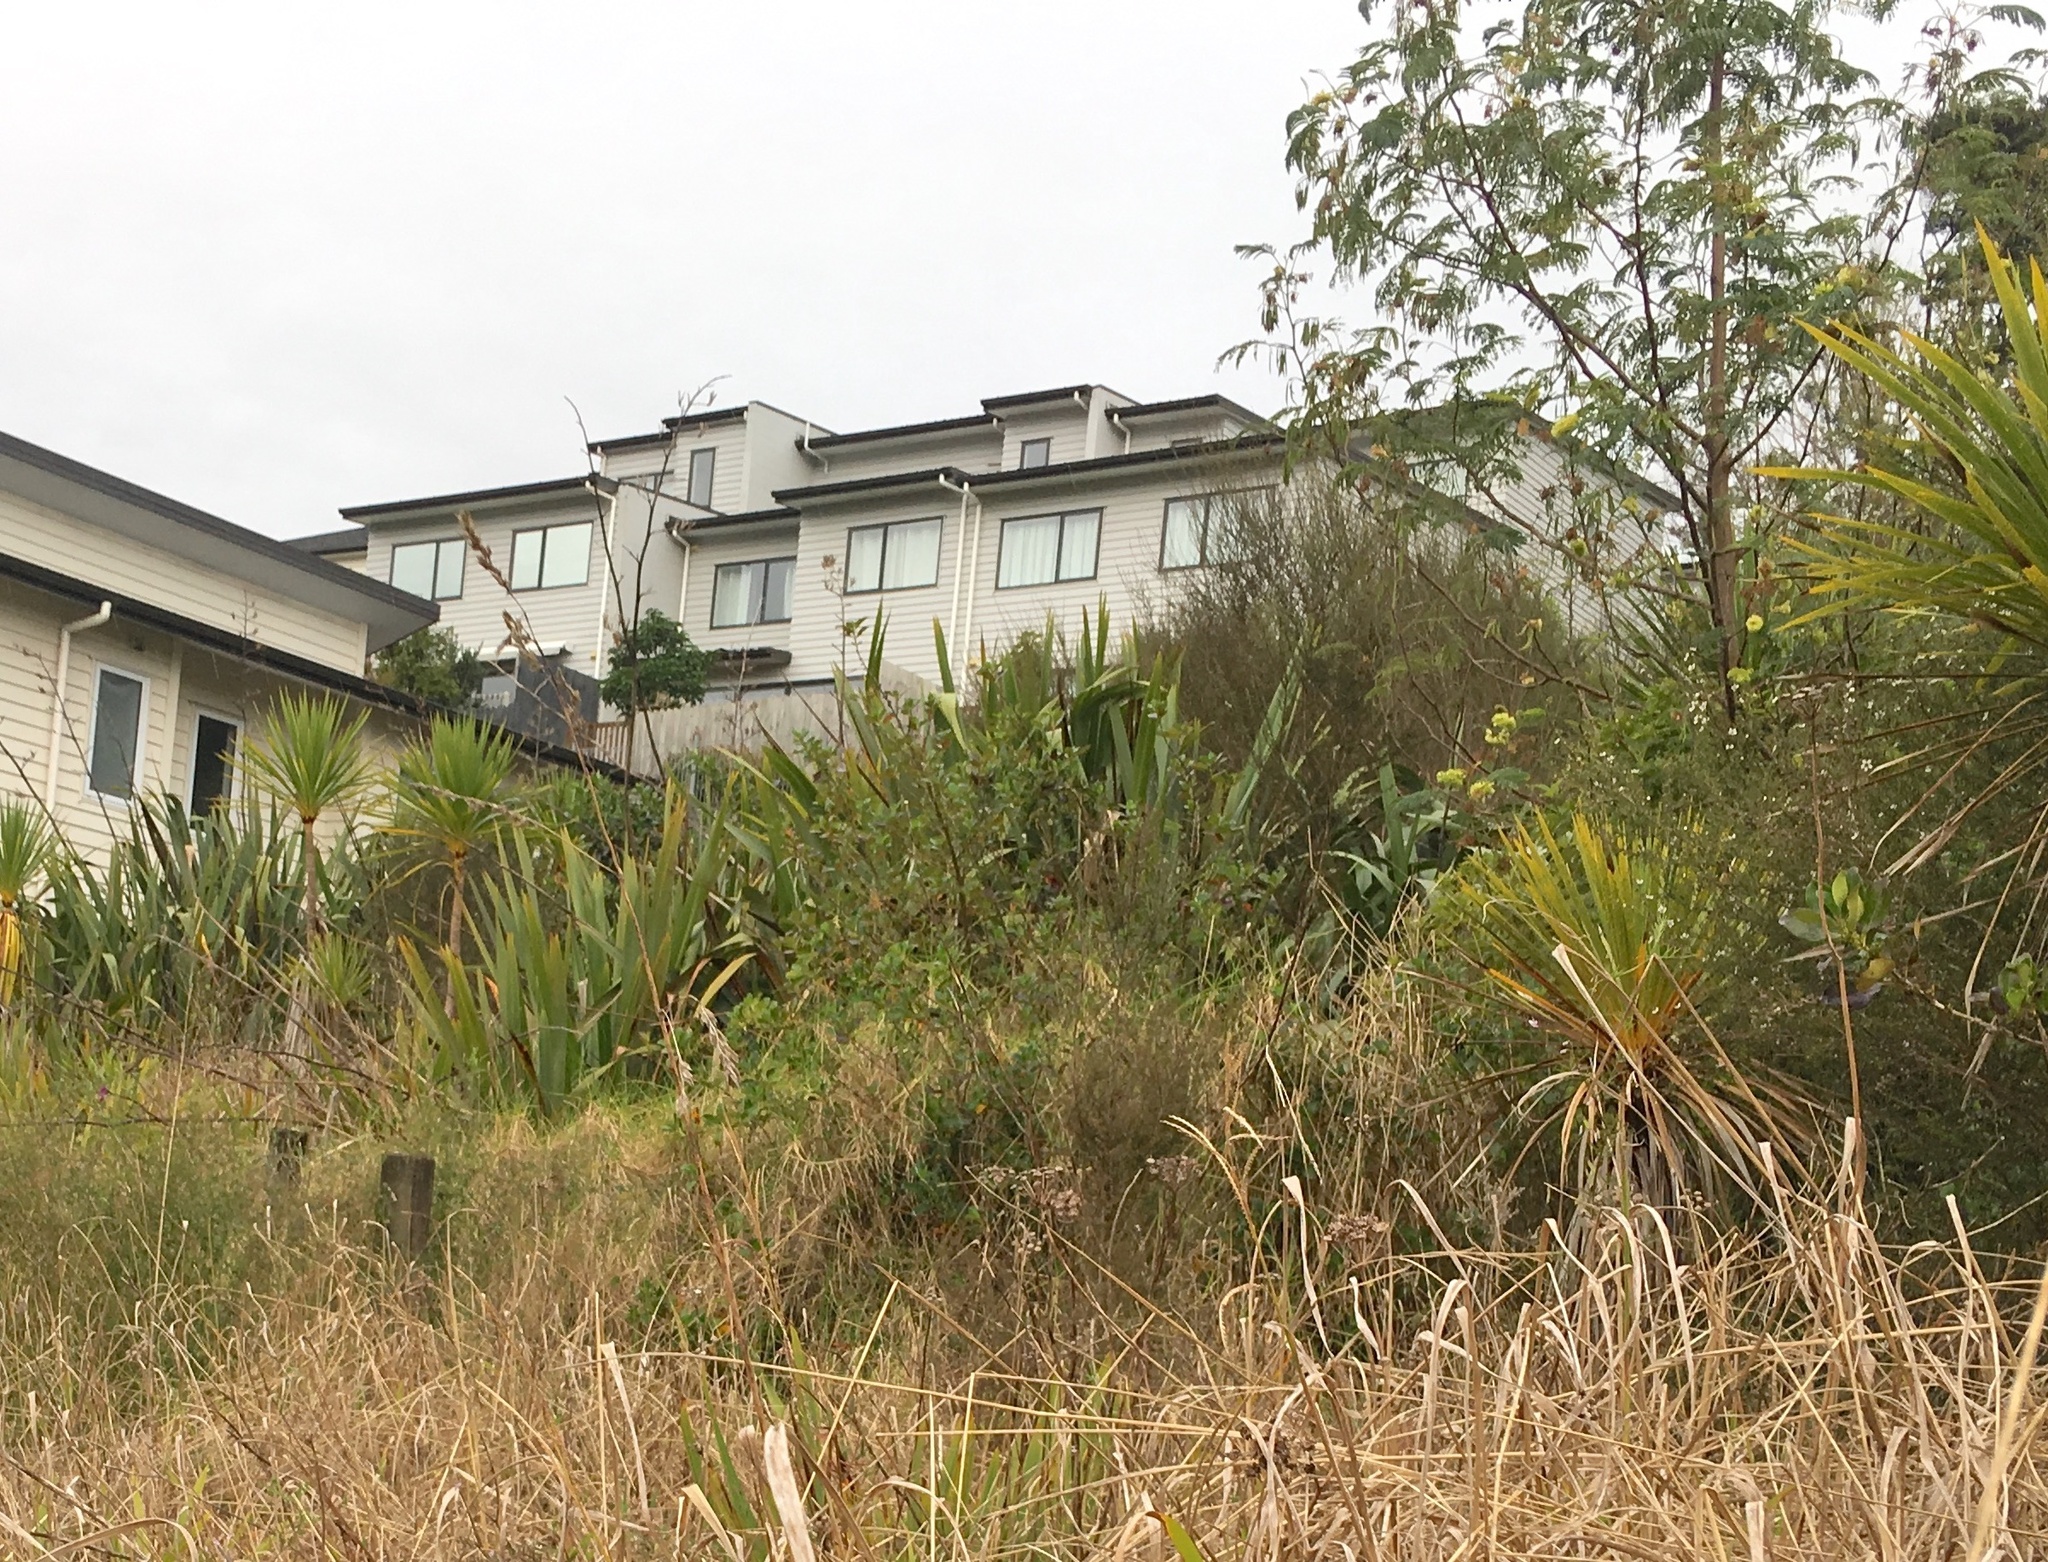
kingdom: Plantae
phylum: Tracheophyta
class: Liliopsida
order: Asparagales
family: Asphodelaceae
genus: Phormium
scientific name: Phormium tenax
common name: New zealand flax
